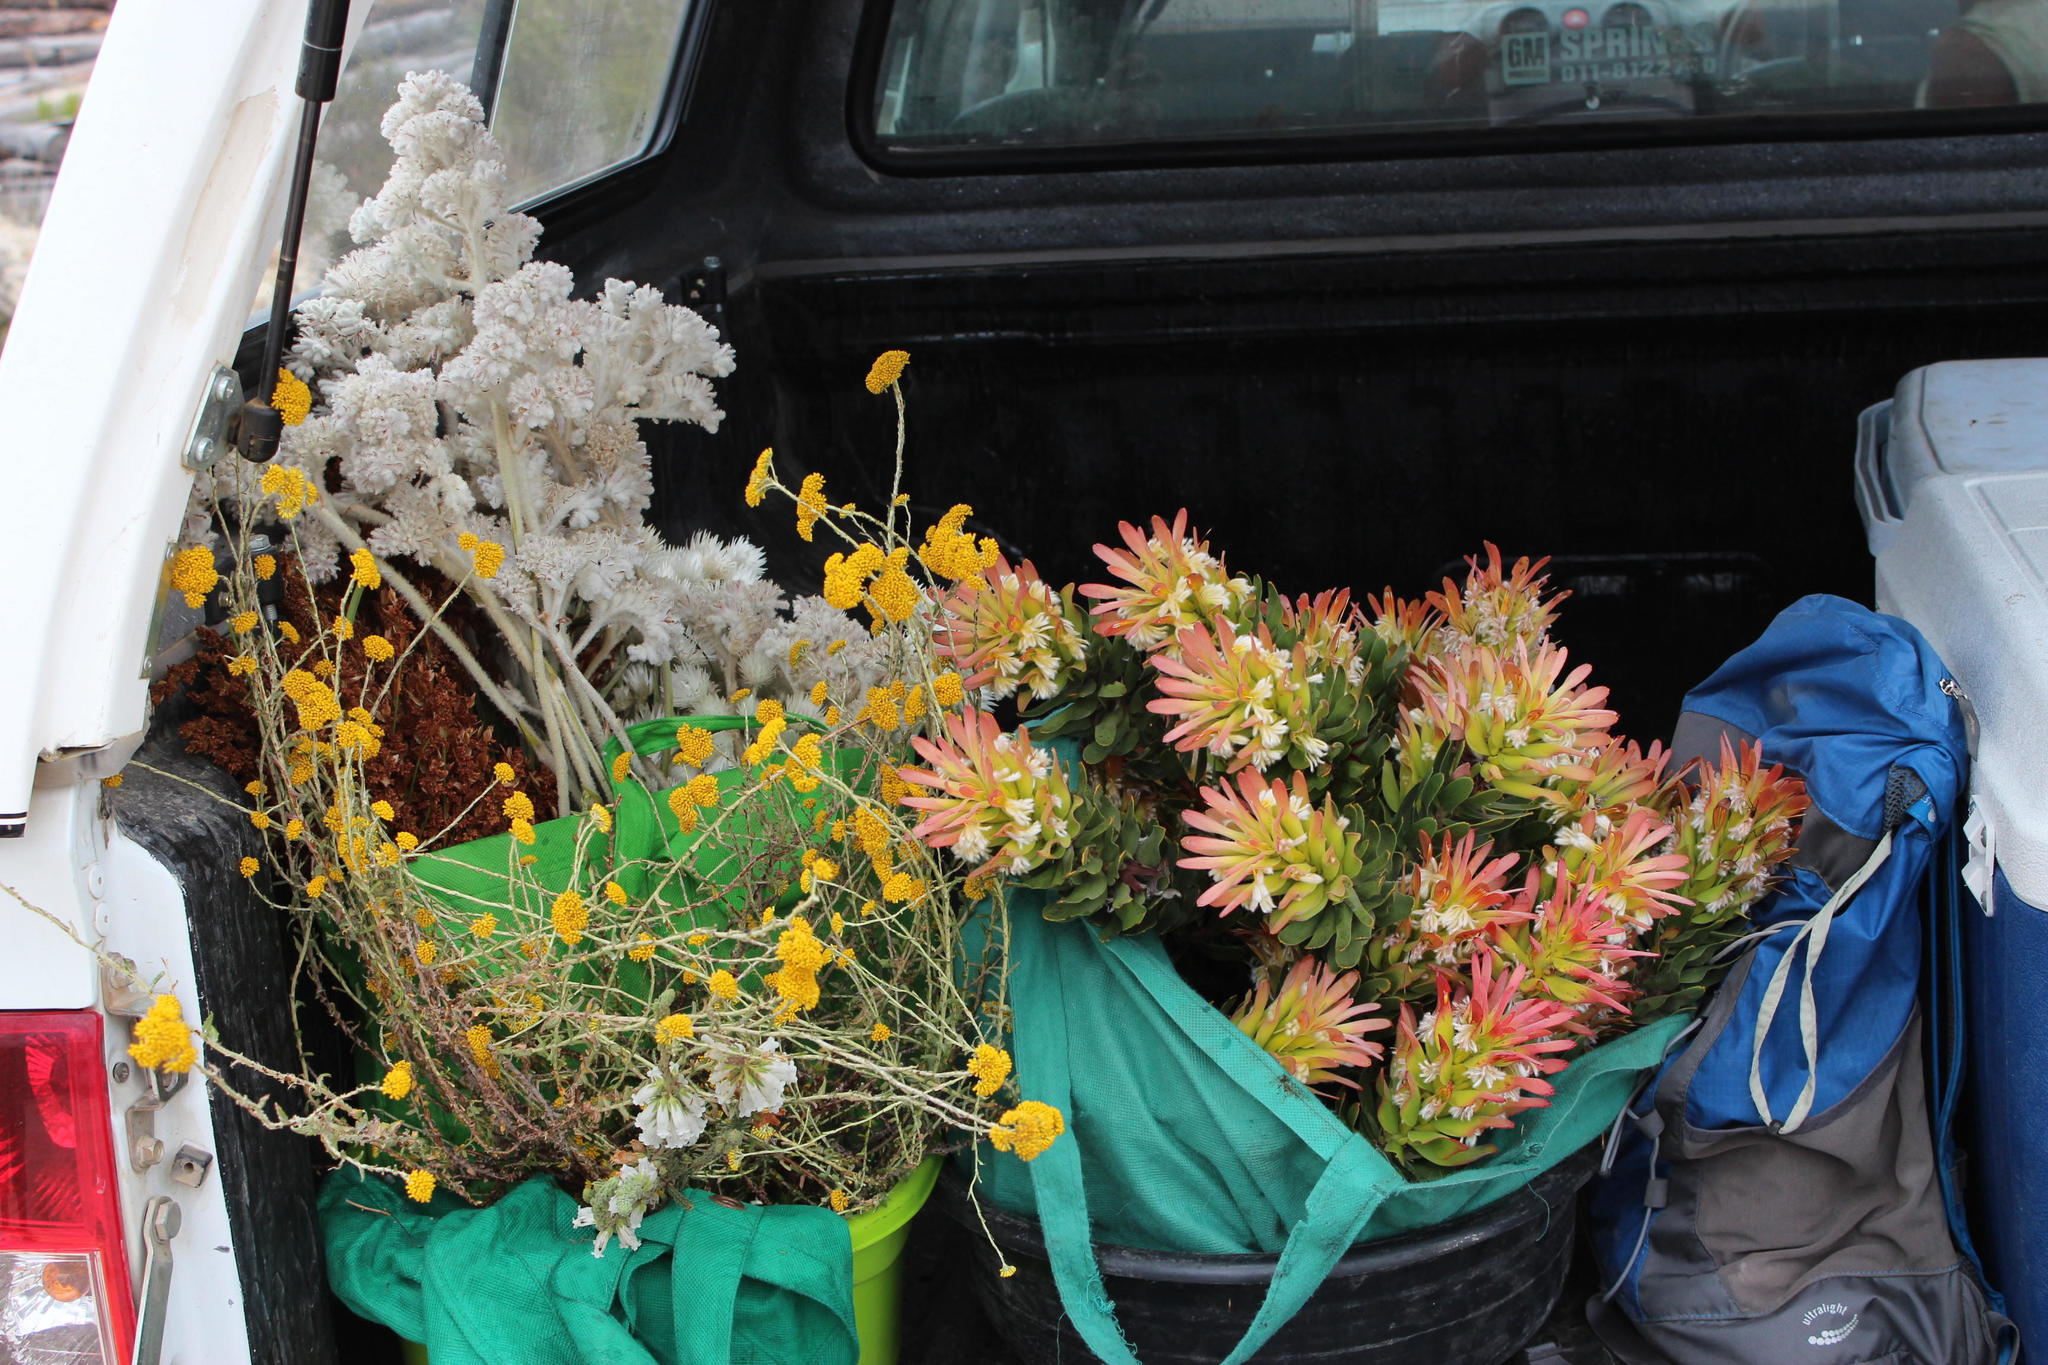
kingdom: Plantae
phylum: Tracheophyta
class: Magnoliopsida
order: Proteales
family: Proteaceae
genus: Leucospermum
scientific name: Leucospermum cordifolium
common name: Red pincushion-protea
